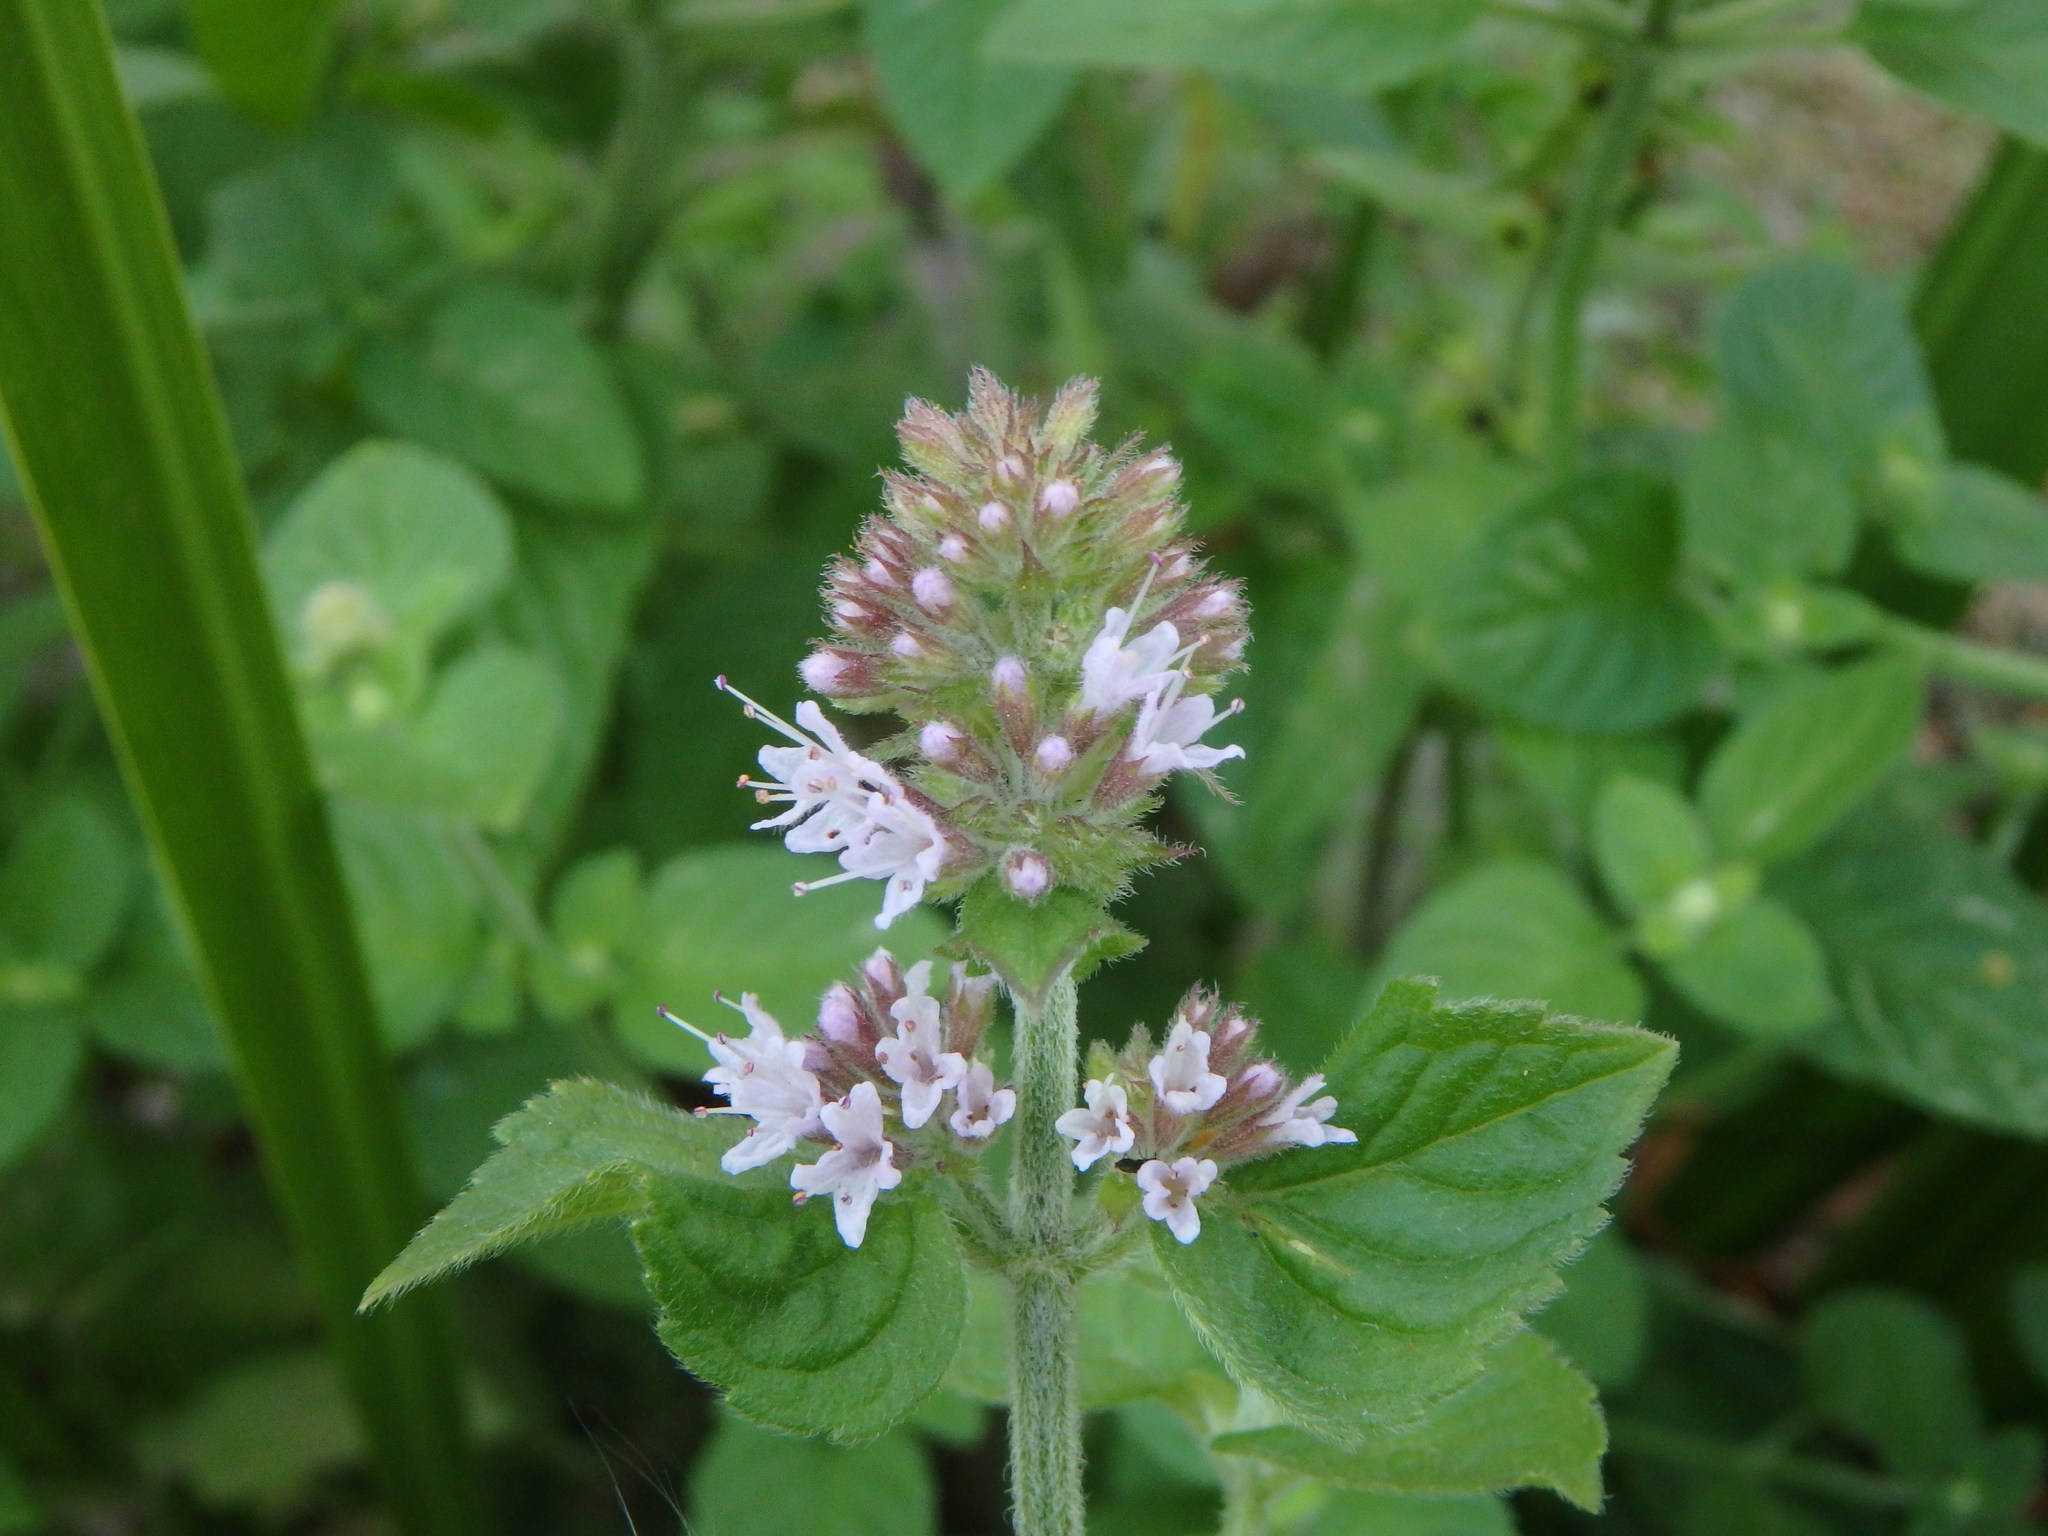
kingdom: Plantae
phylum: Tracheophyta
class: Magnoliopsida
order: Lamiales
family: Lamiaceae
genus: Mentha
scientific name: Mentha aquatica
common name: Water mint
